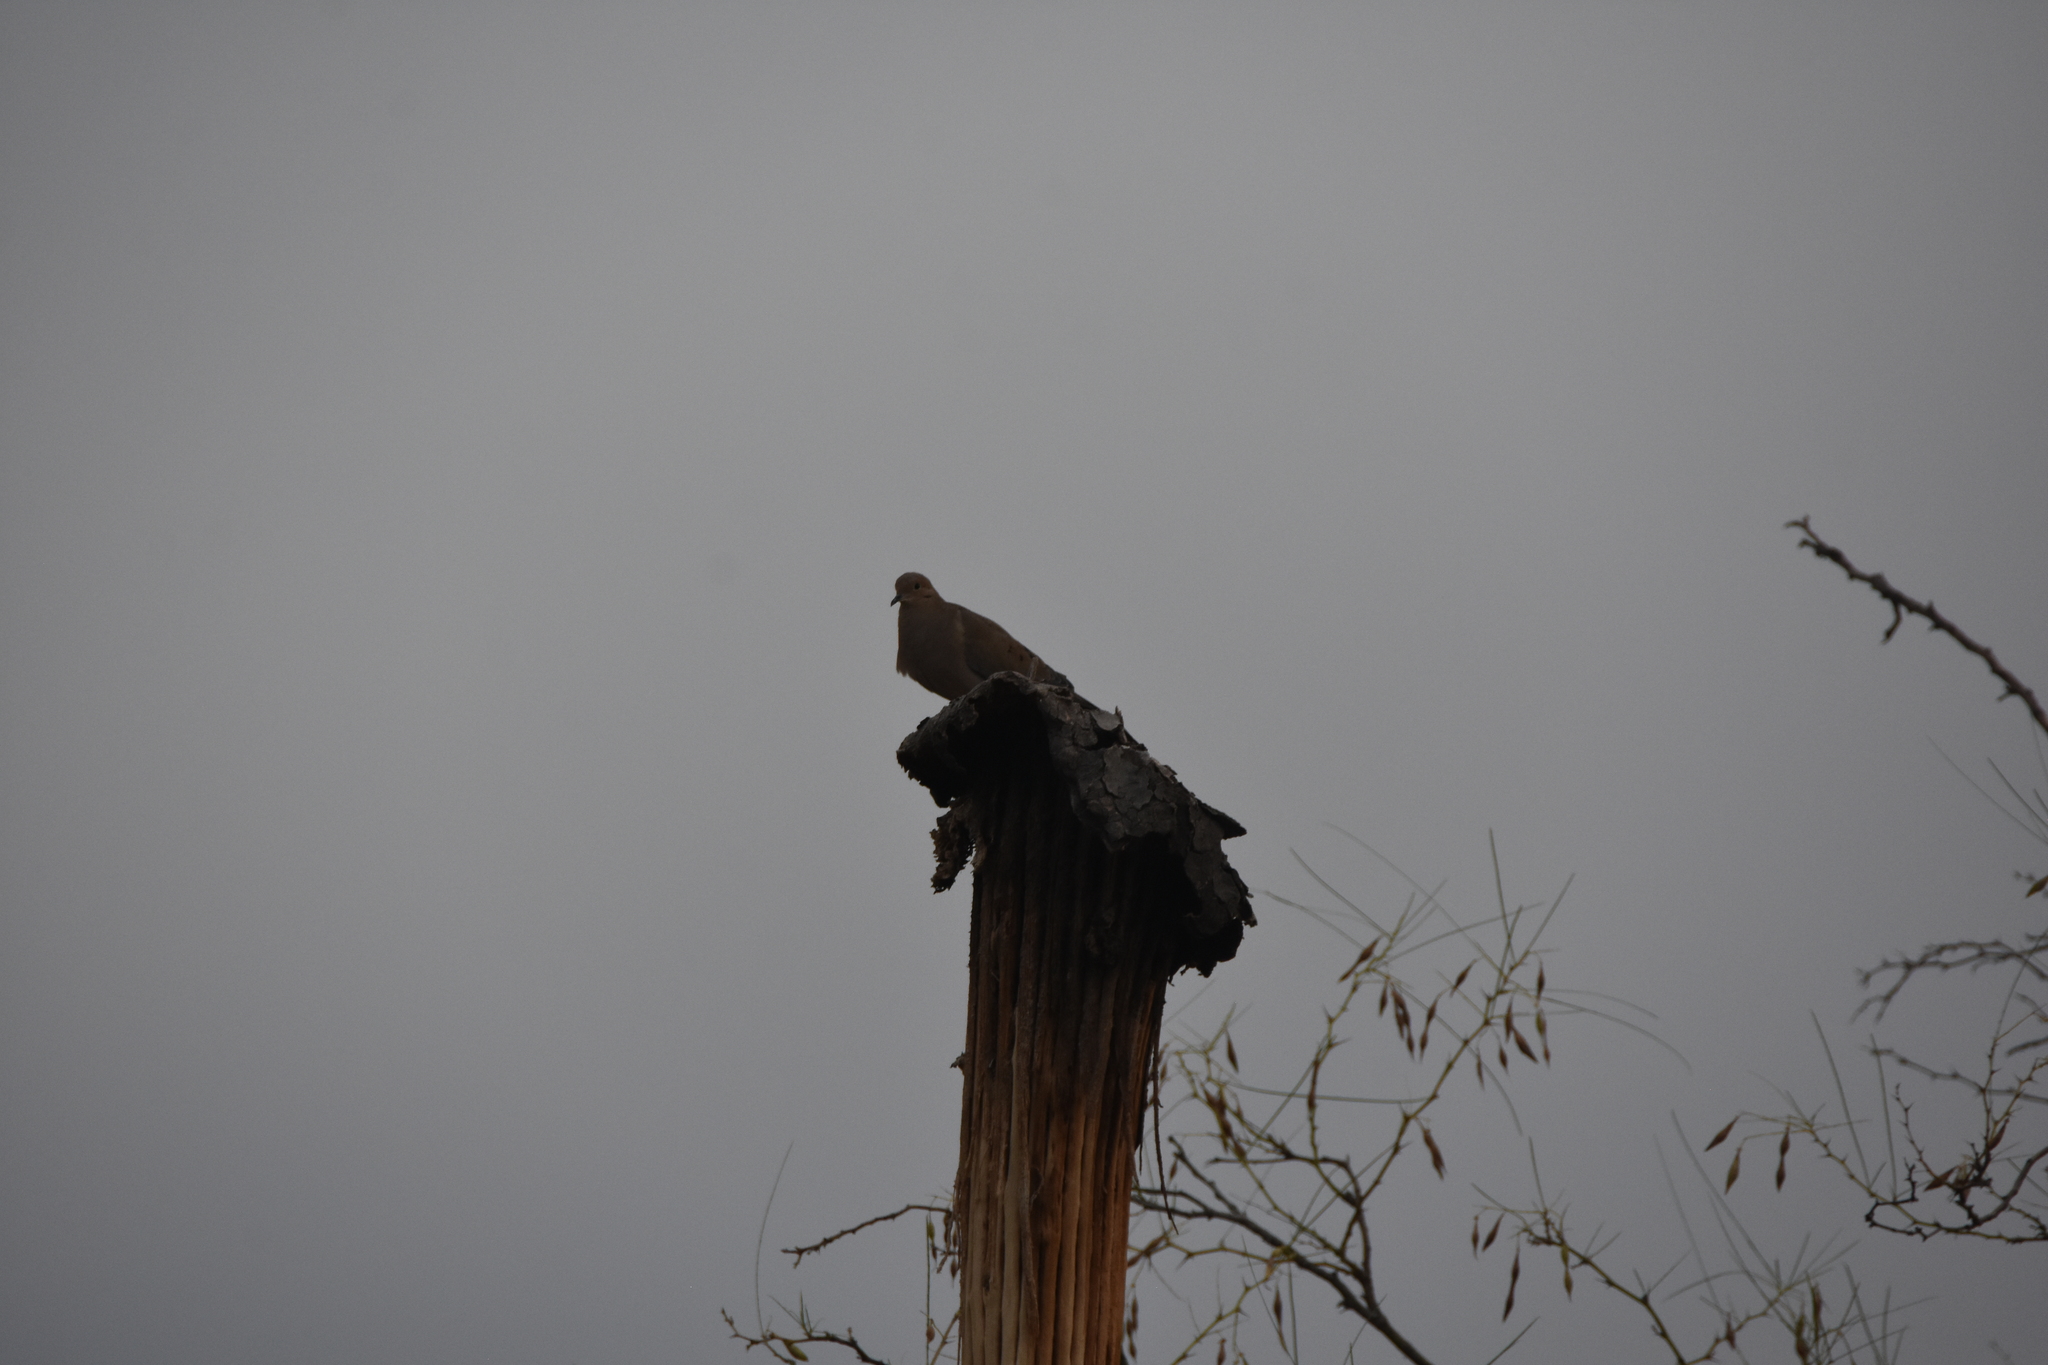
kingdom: Animalia
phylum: Chordata
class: Aves
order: Columbiformes
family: Columbidae
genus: Zenaida
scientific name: Zenaida macroura
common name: Mourning dove
